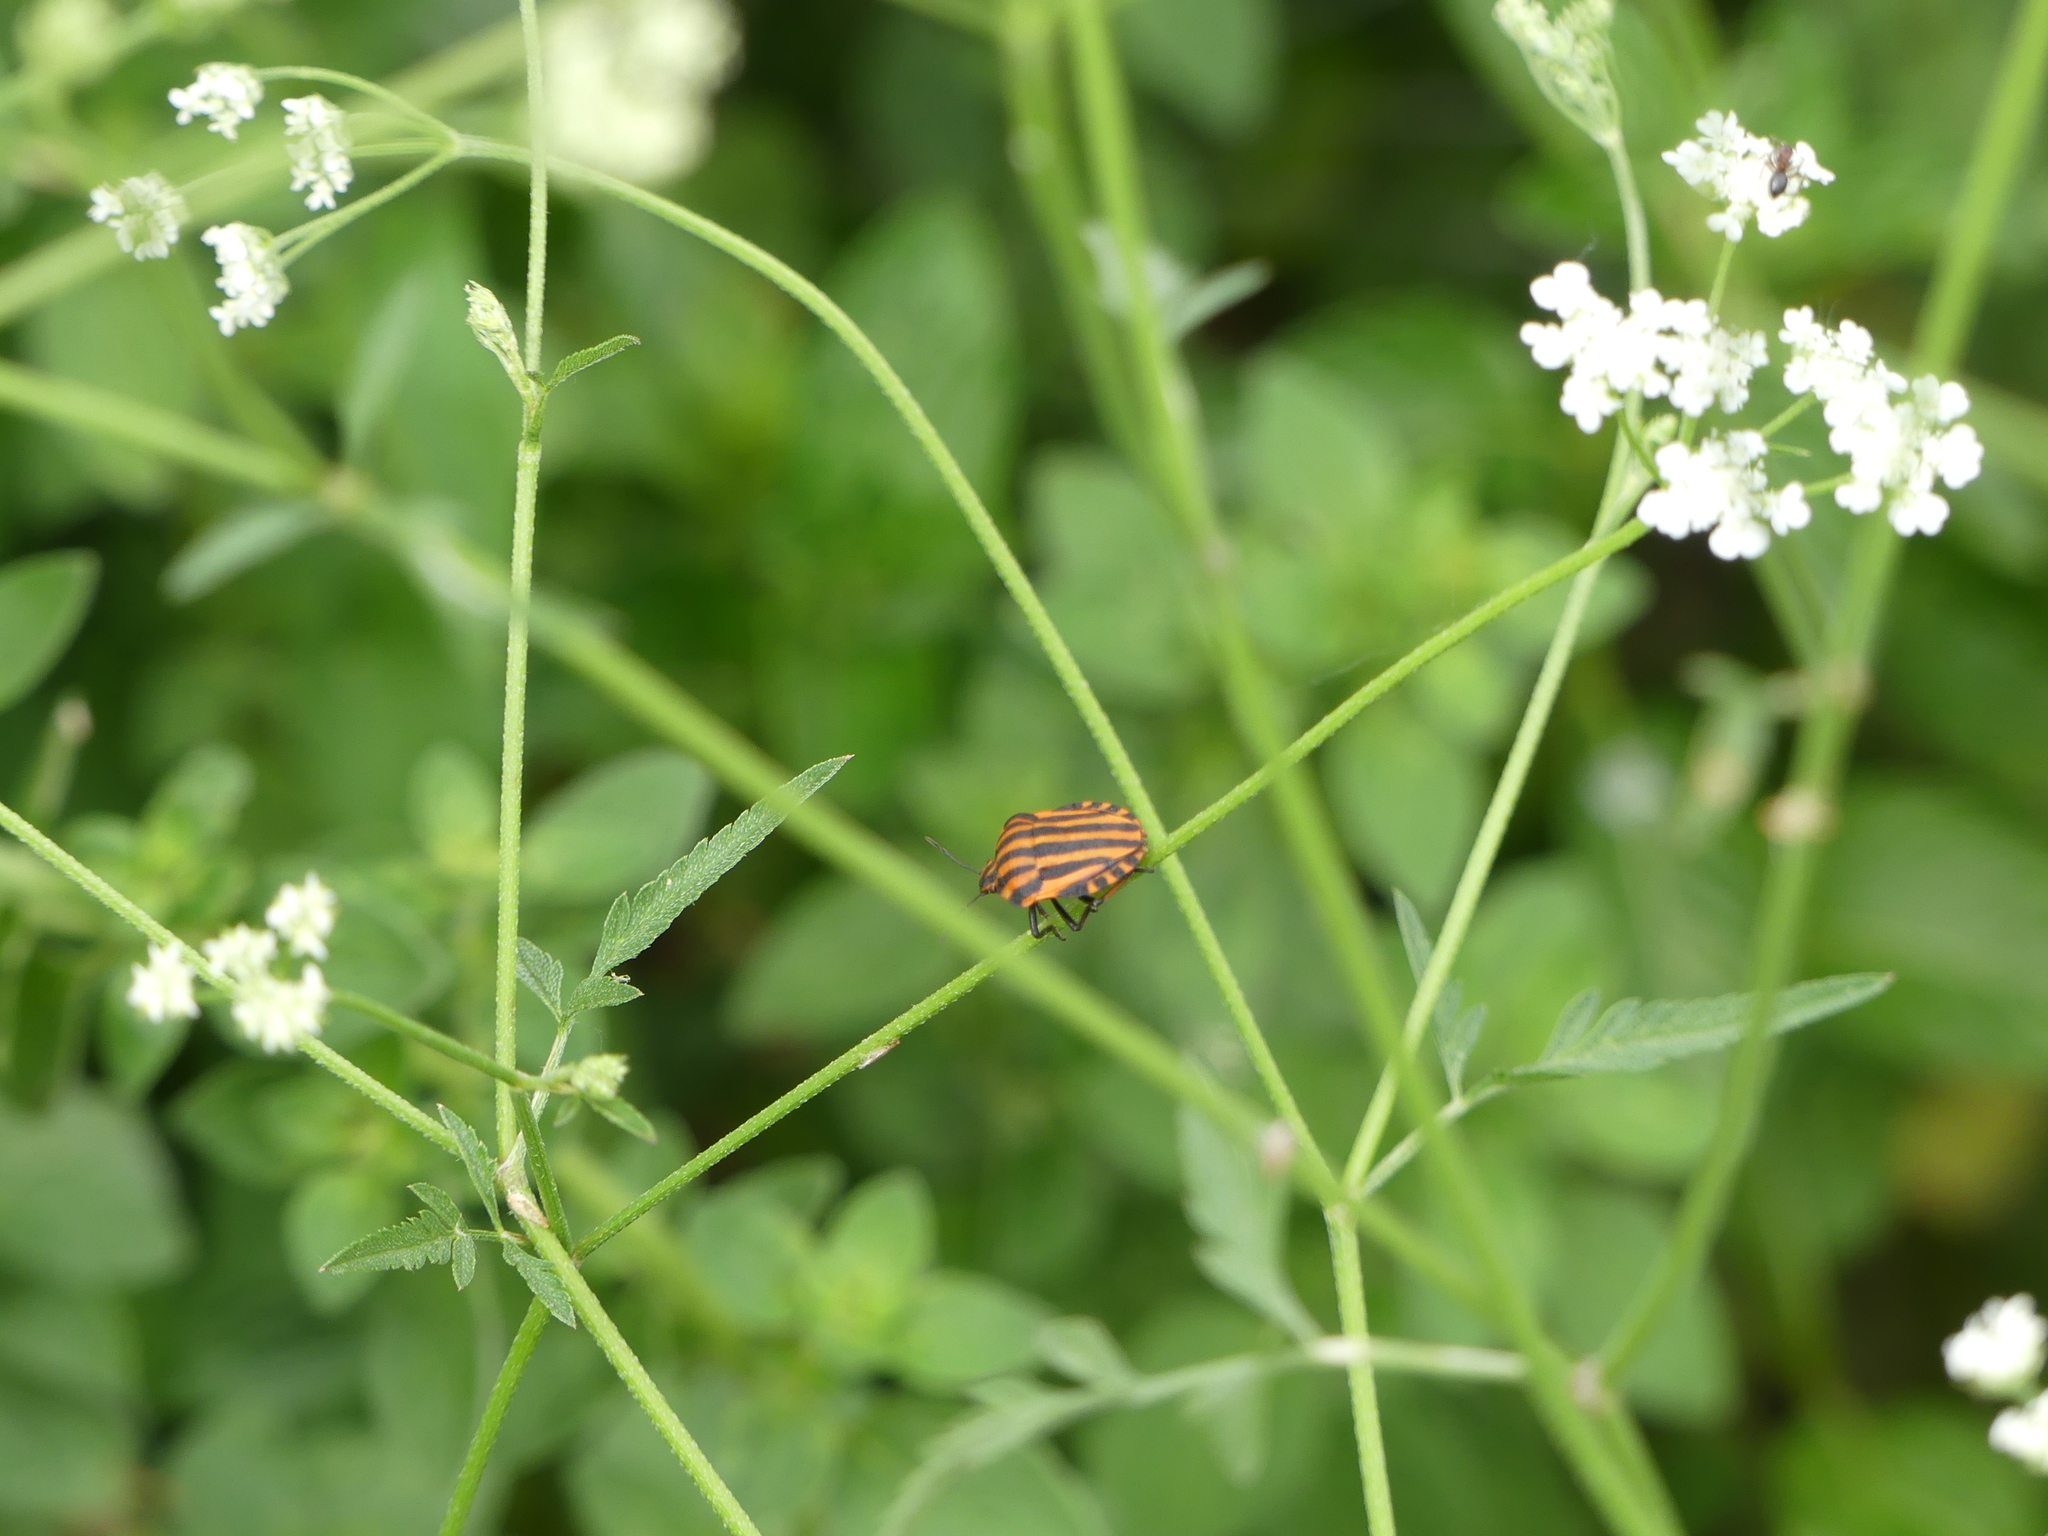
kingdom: Animalia
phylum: Arthropoda
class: Insecta
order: Hemiptera
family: Pentatomidae
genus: Graphosoma
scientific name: Graphosoma italicum
